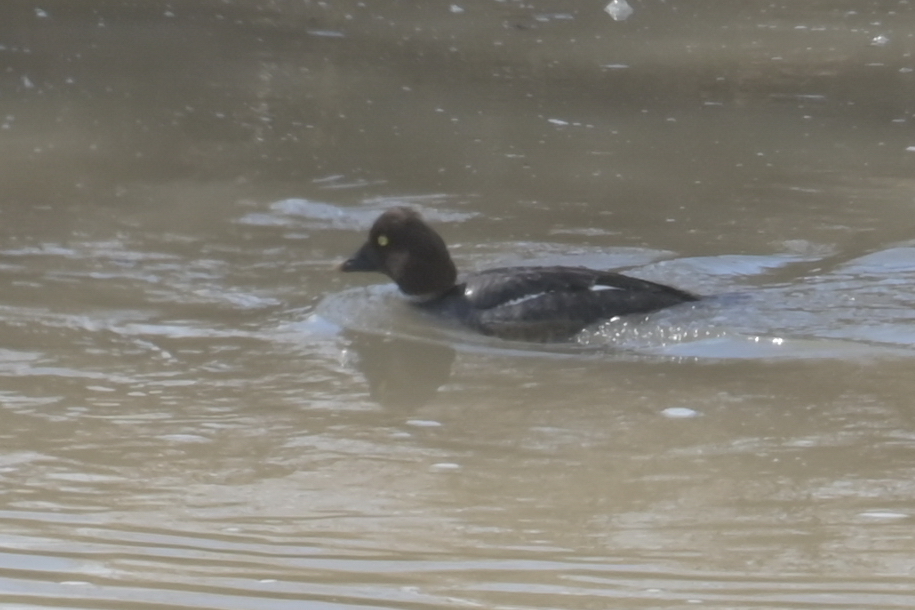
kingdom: Animalia
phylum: Chordata
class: Aves
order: Anseriformes
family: Anatidae
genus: Bucephala
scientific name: Bucephala clangula
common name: Common goldeneye
